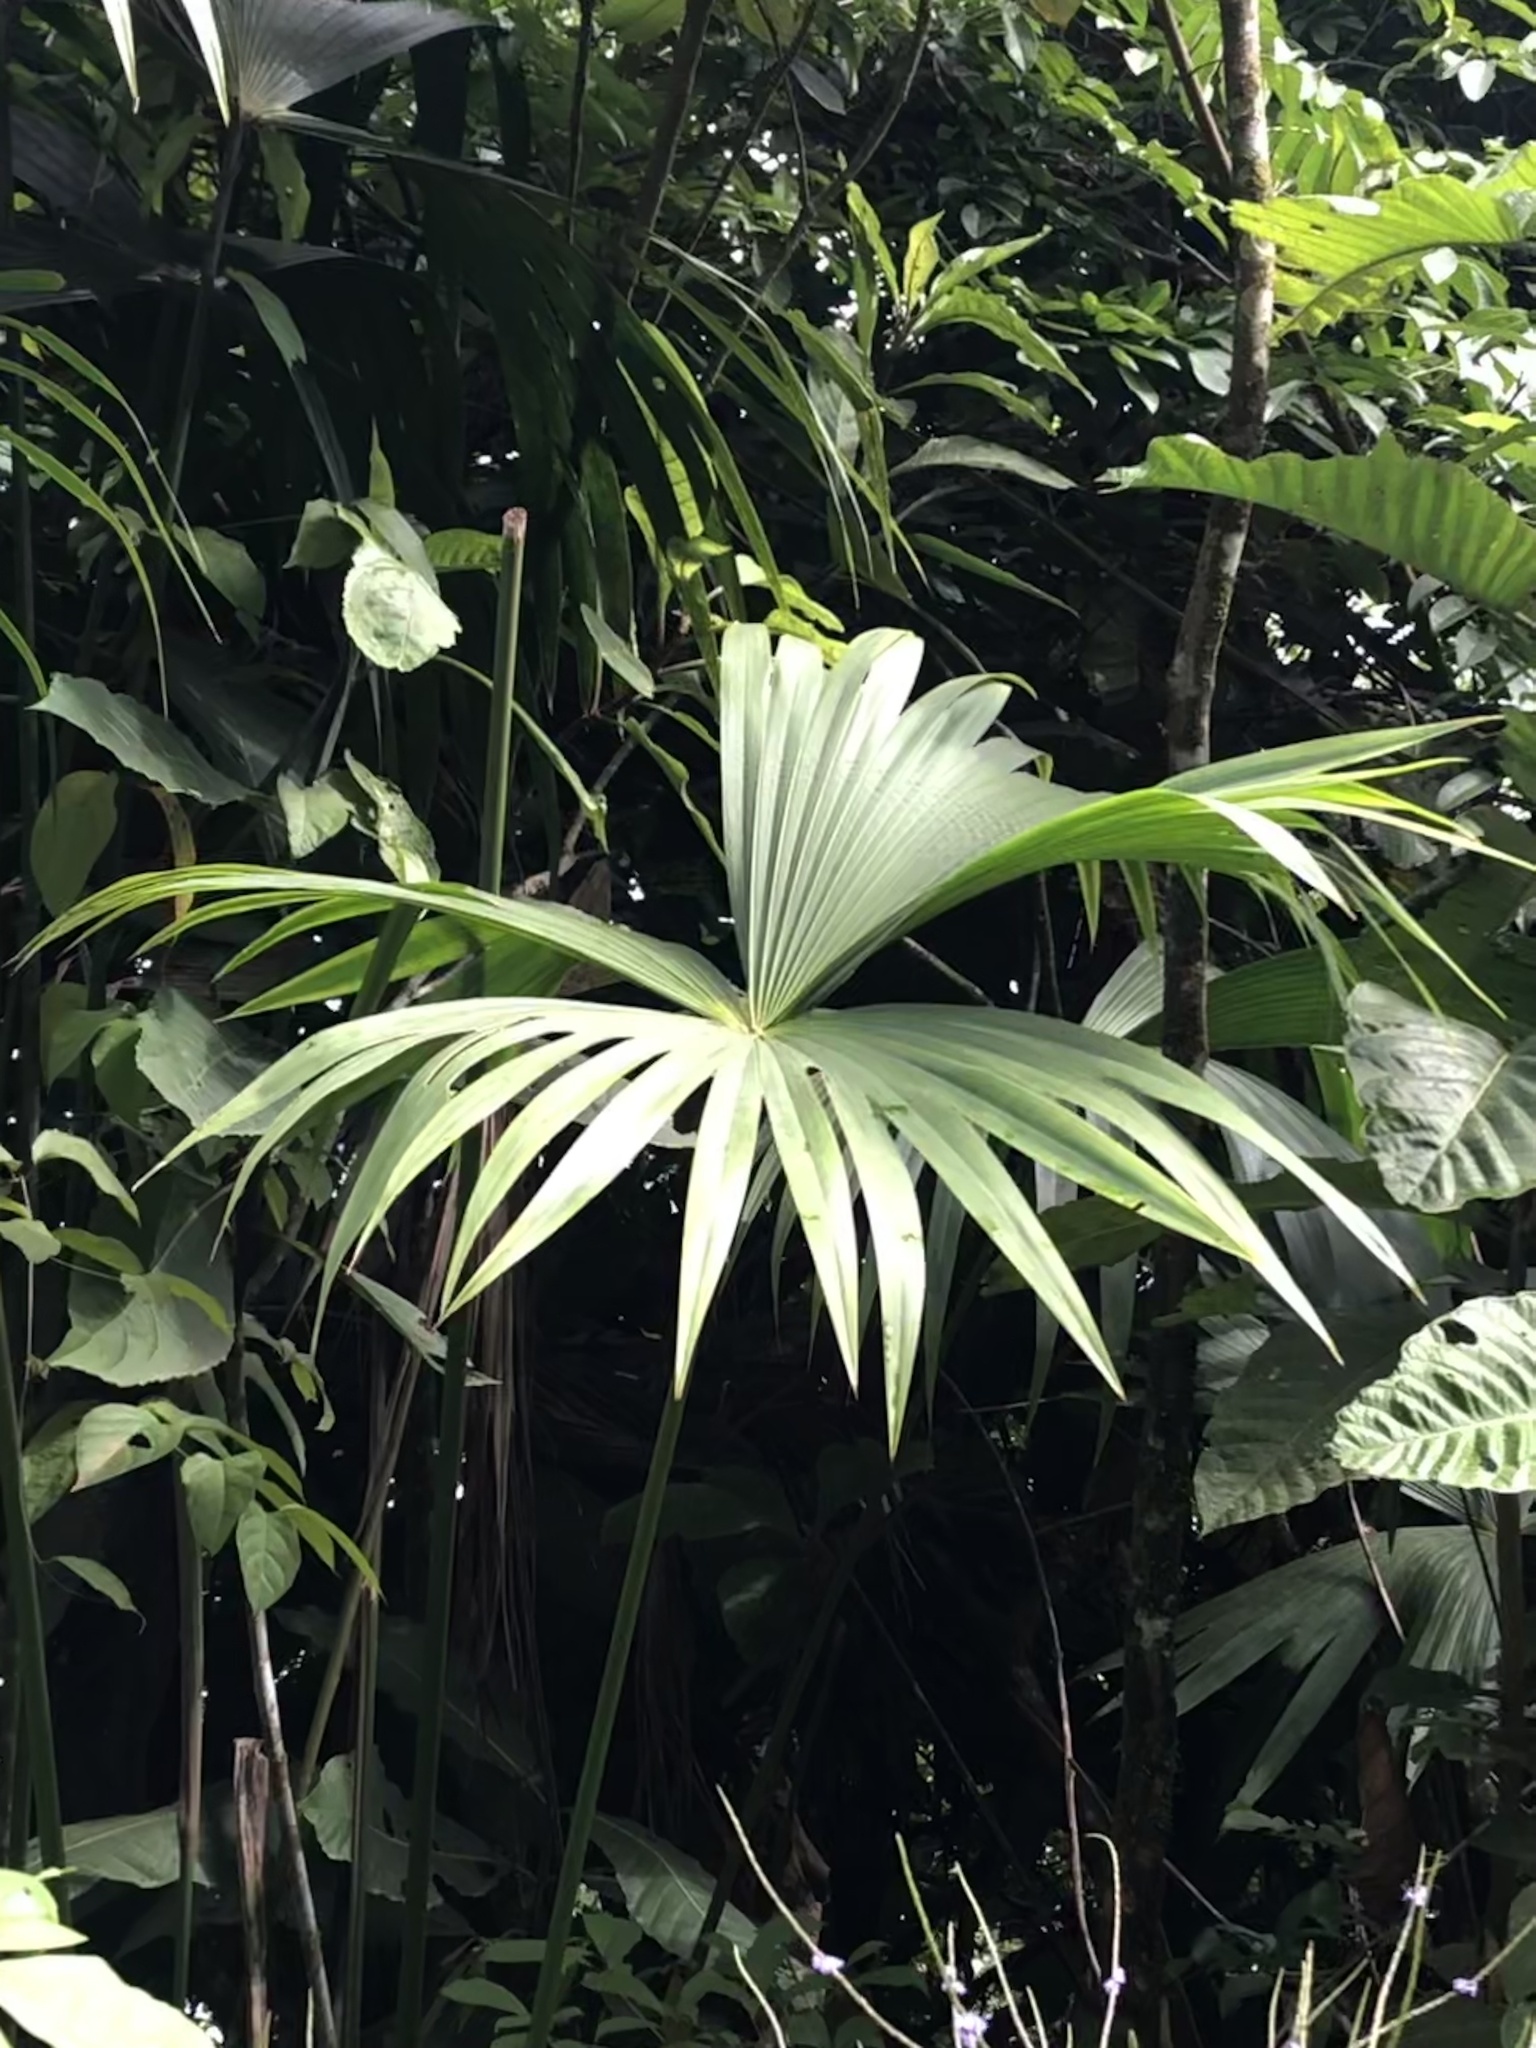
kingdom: Plantae
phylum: Tracheophyta
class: Liliopsida
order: Pandanales
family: Cyclanthaceae
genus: Carludovica
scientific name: Carludovica palmata
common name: Panama hat plant
